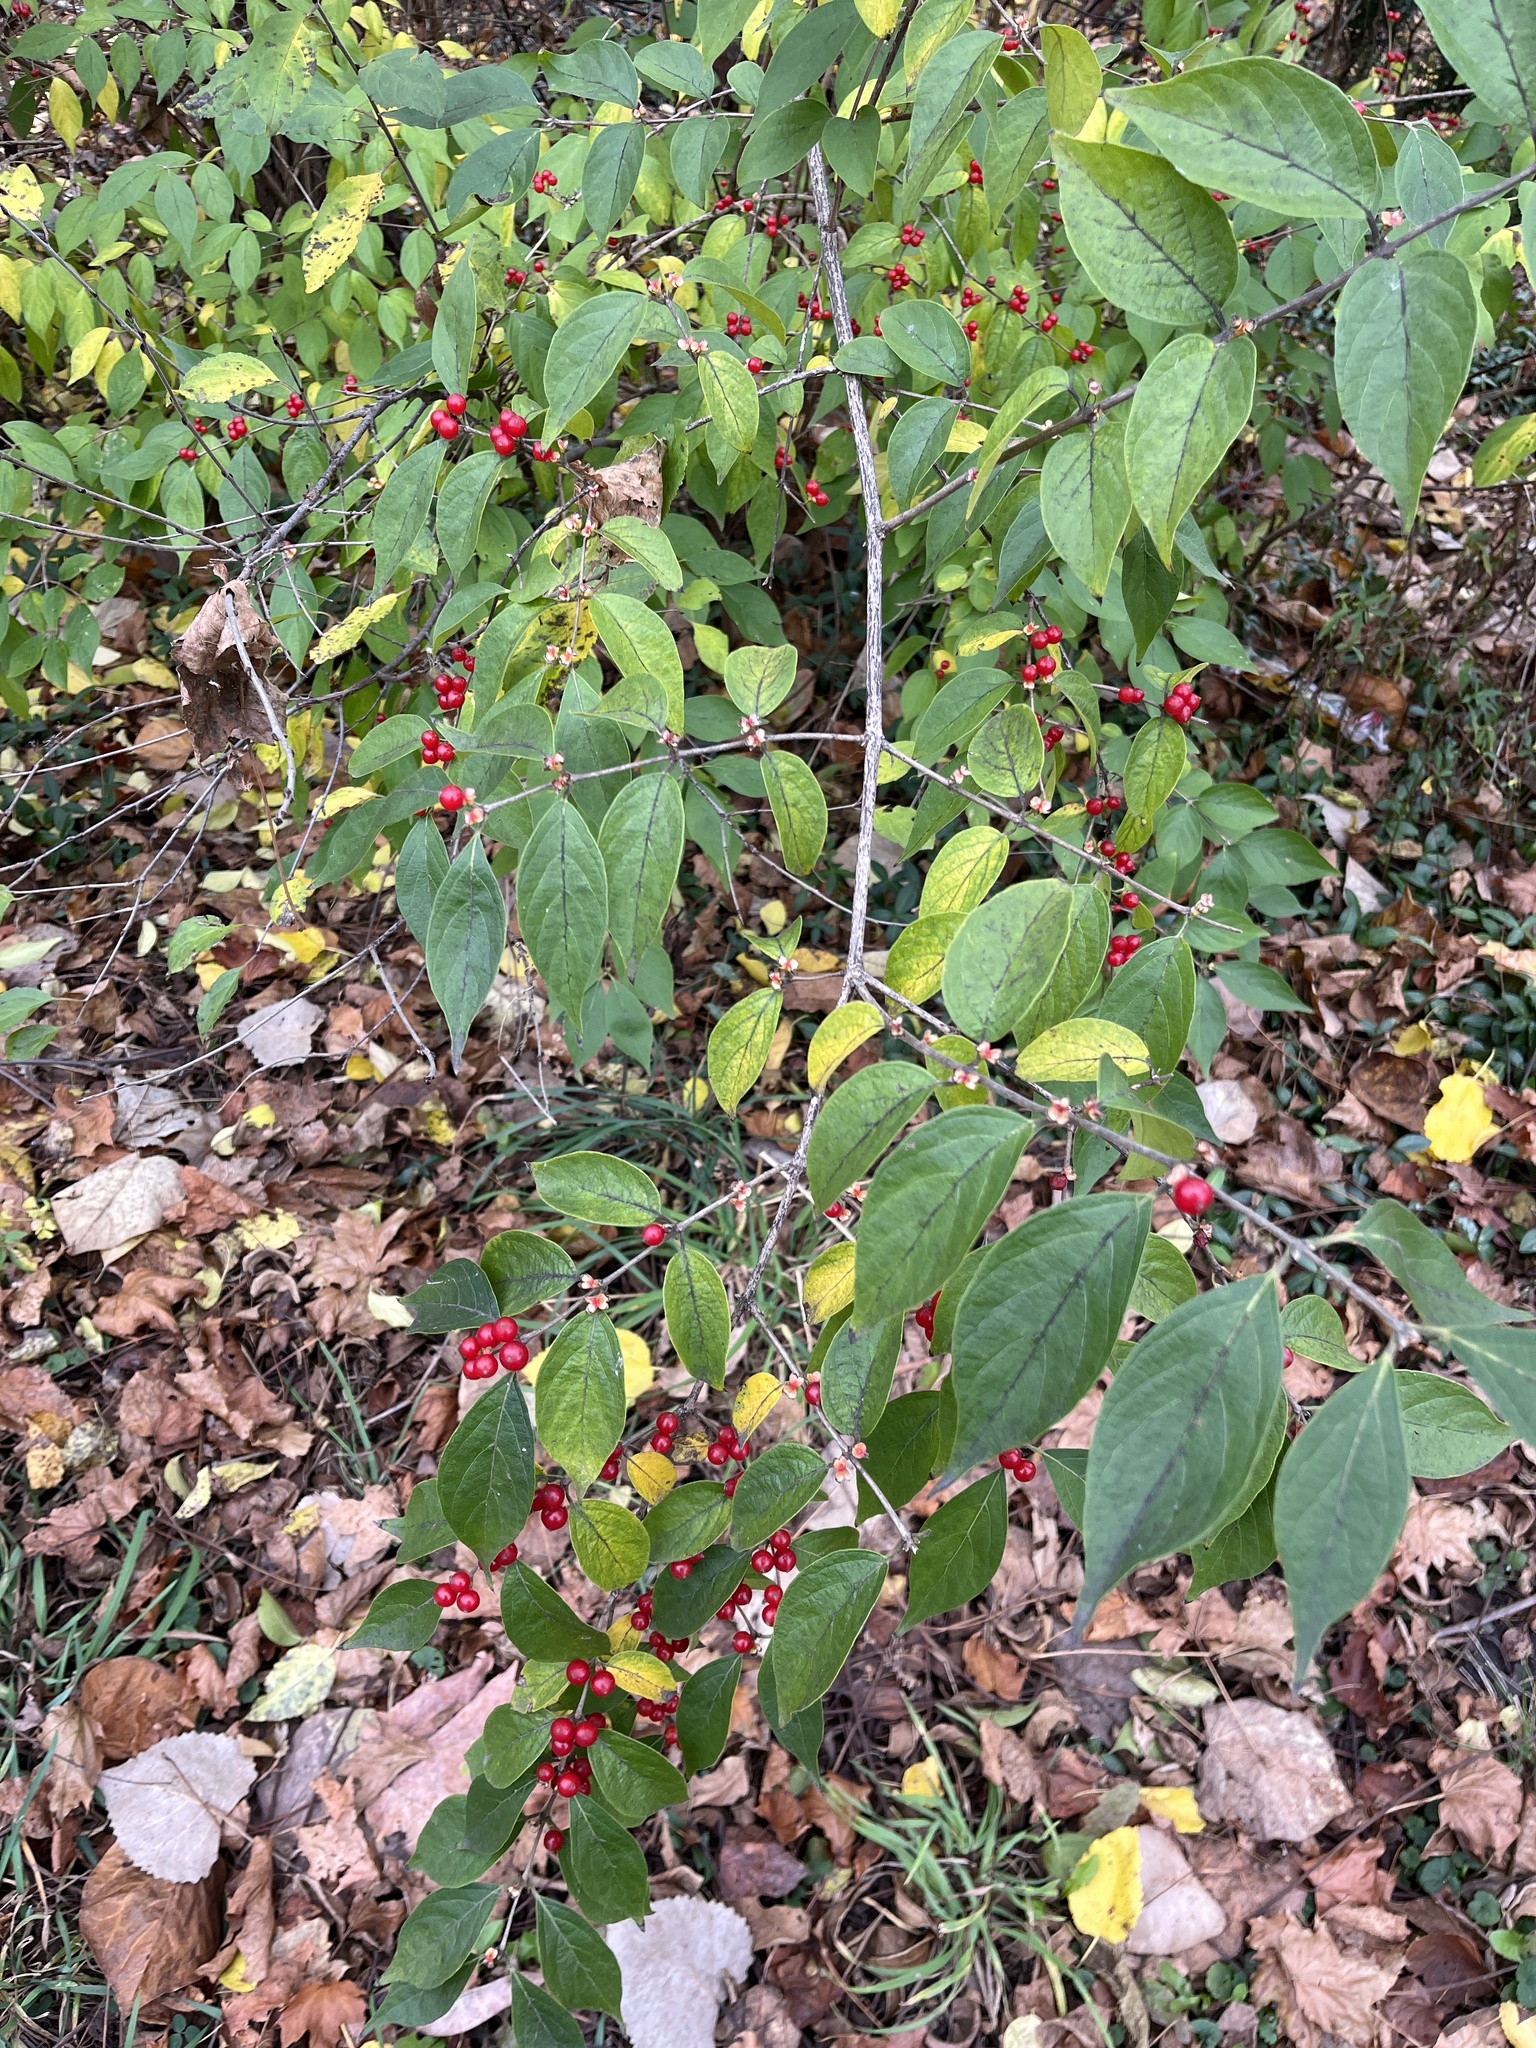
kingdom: Plantae
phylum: Tracheophyta
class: Magnoliopsida
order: Dipsacales
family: Caprifoliaceae
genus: Lonicera
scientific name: Lonicera maackii
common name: Amur honeysuckle
